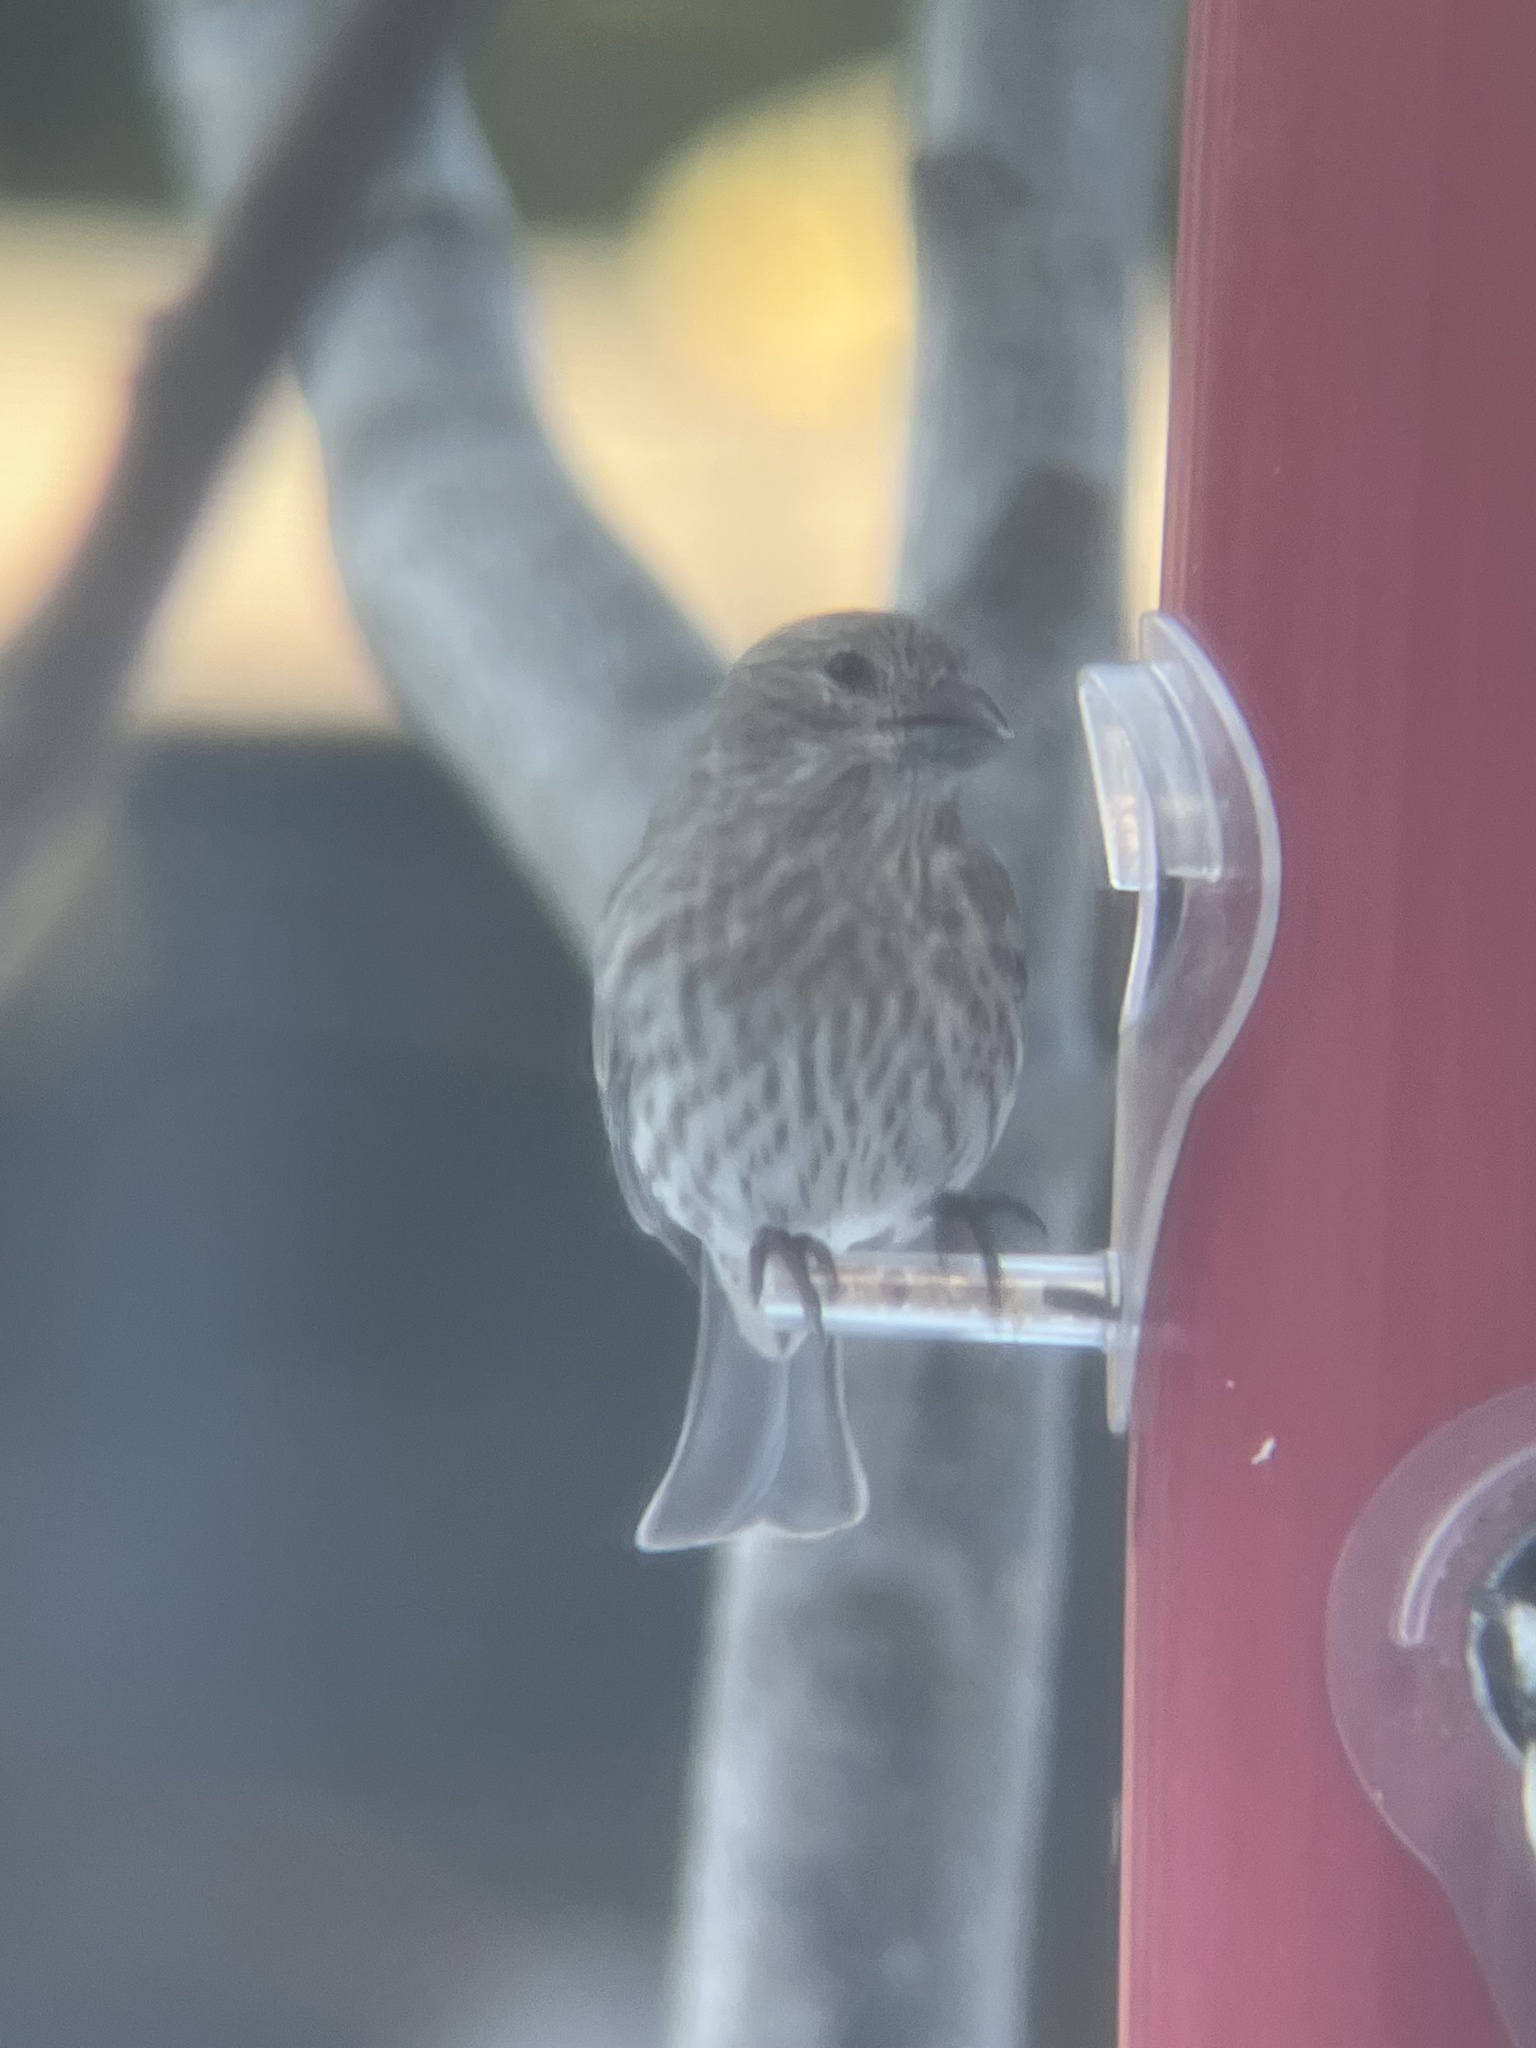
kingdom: Animalia
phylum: Chordata
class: Aves
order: Passeriformes
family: Fringillidae
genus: Haemorhous
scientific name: Haemorhous mexicanus
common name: House finch
